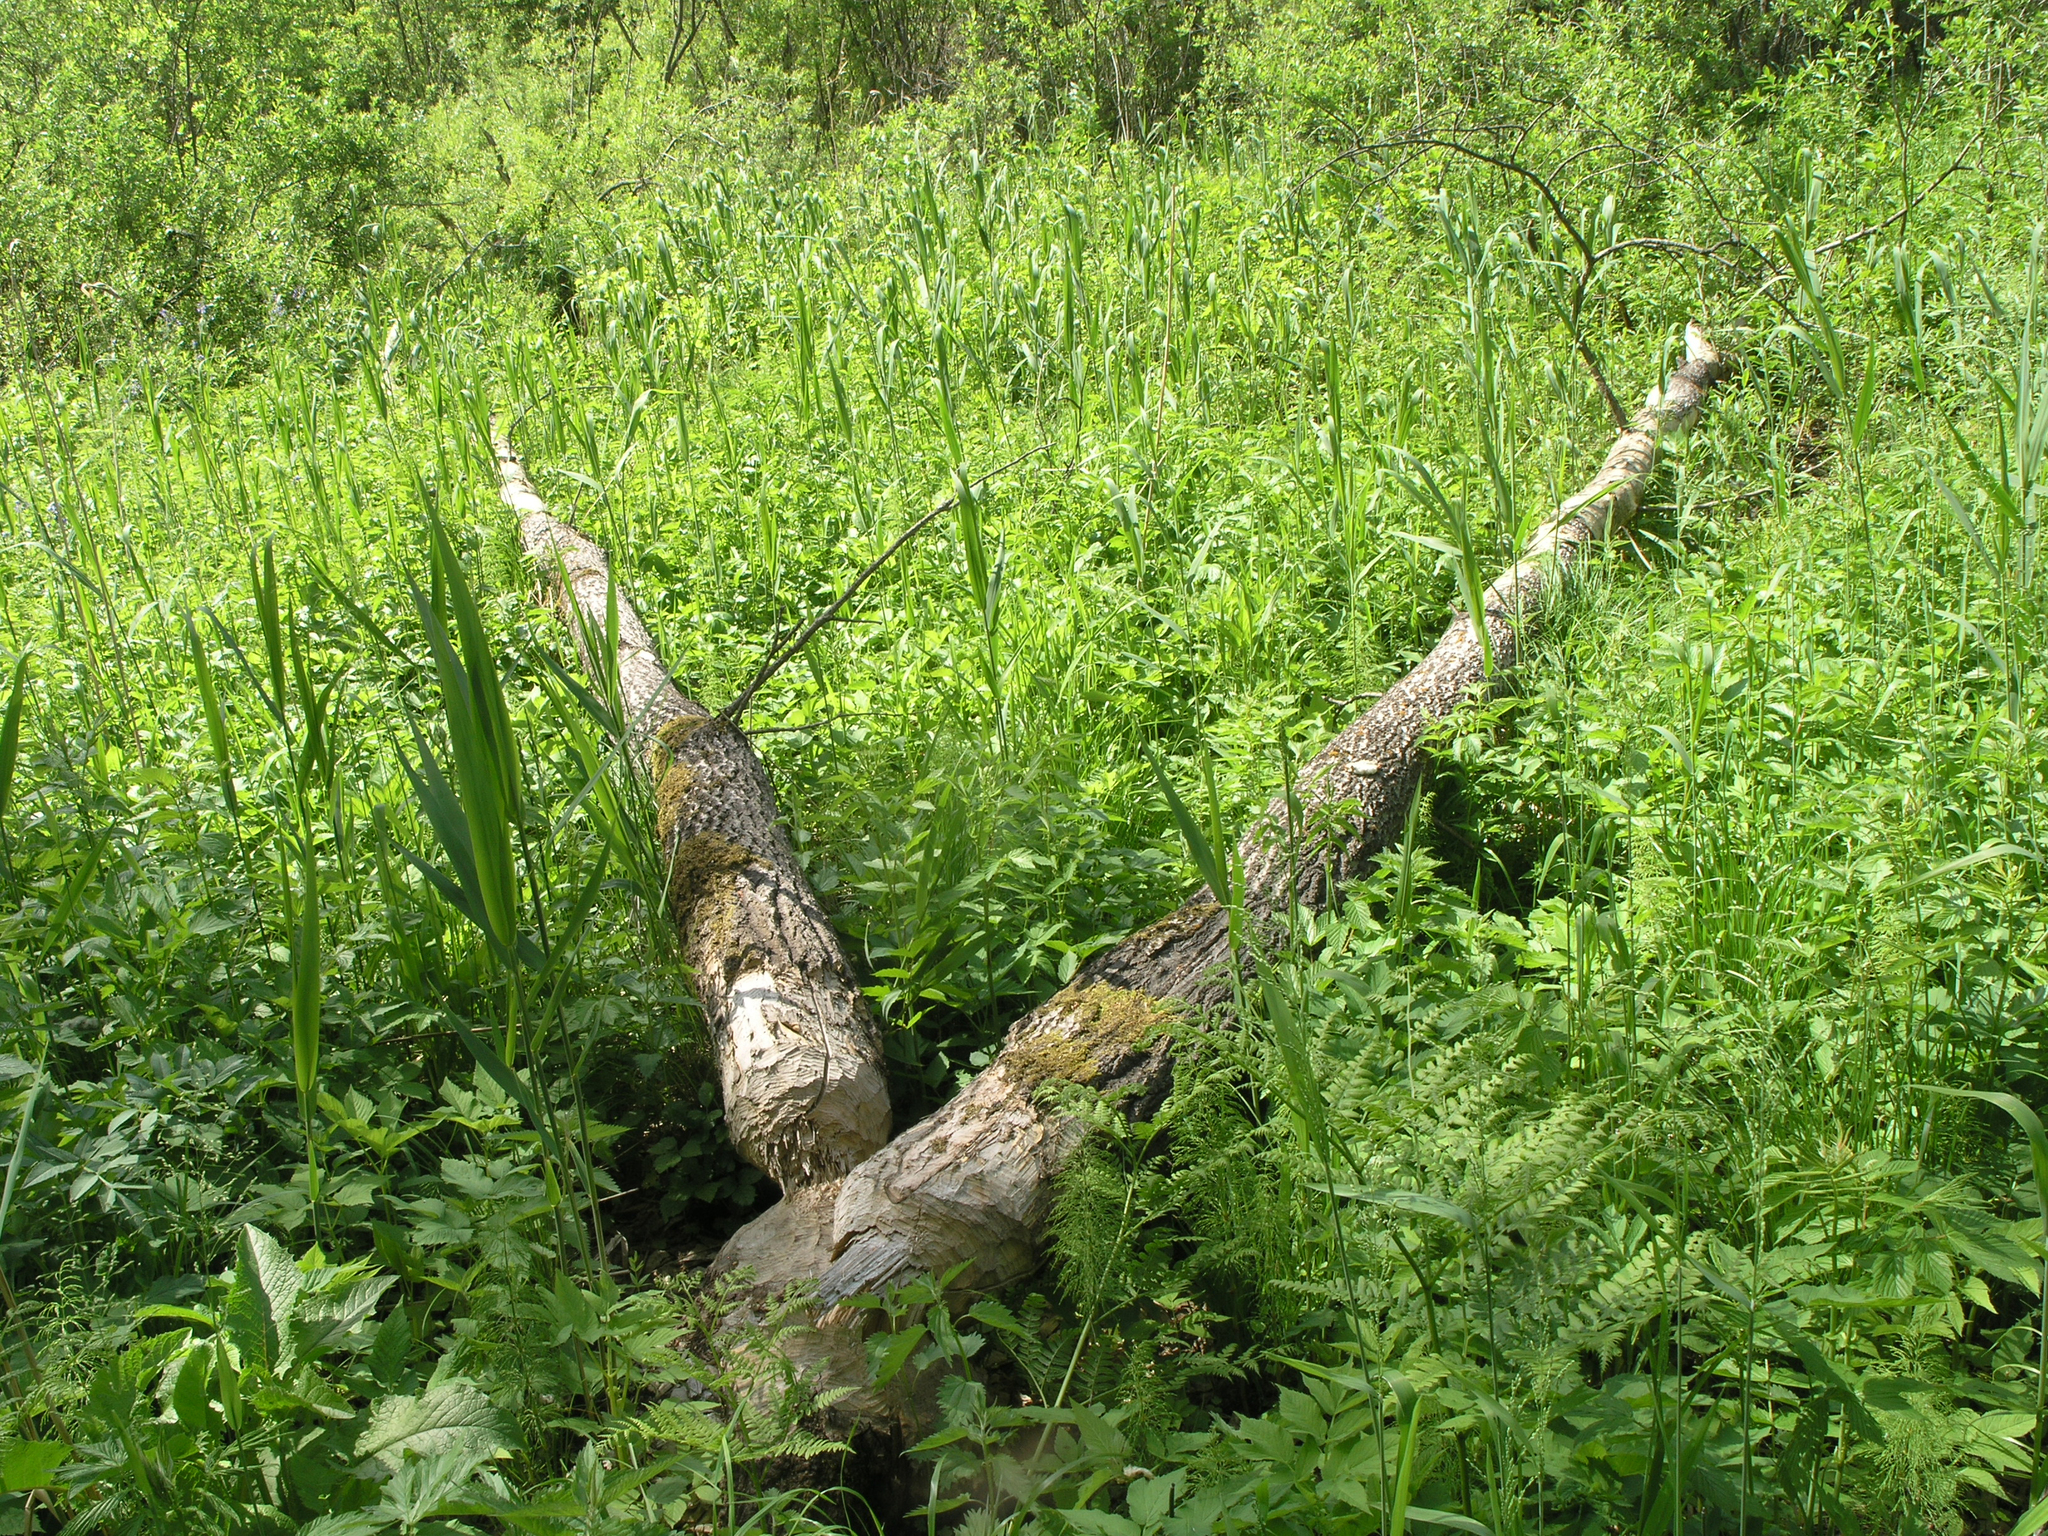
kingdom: Animalia
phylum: Chordata
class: Mammalia
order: Rodentia
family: Castoridae
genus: Castor
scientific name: Castor fiber
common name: Eurasian beaver
